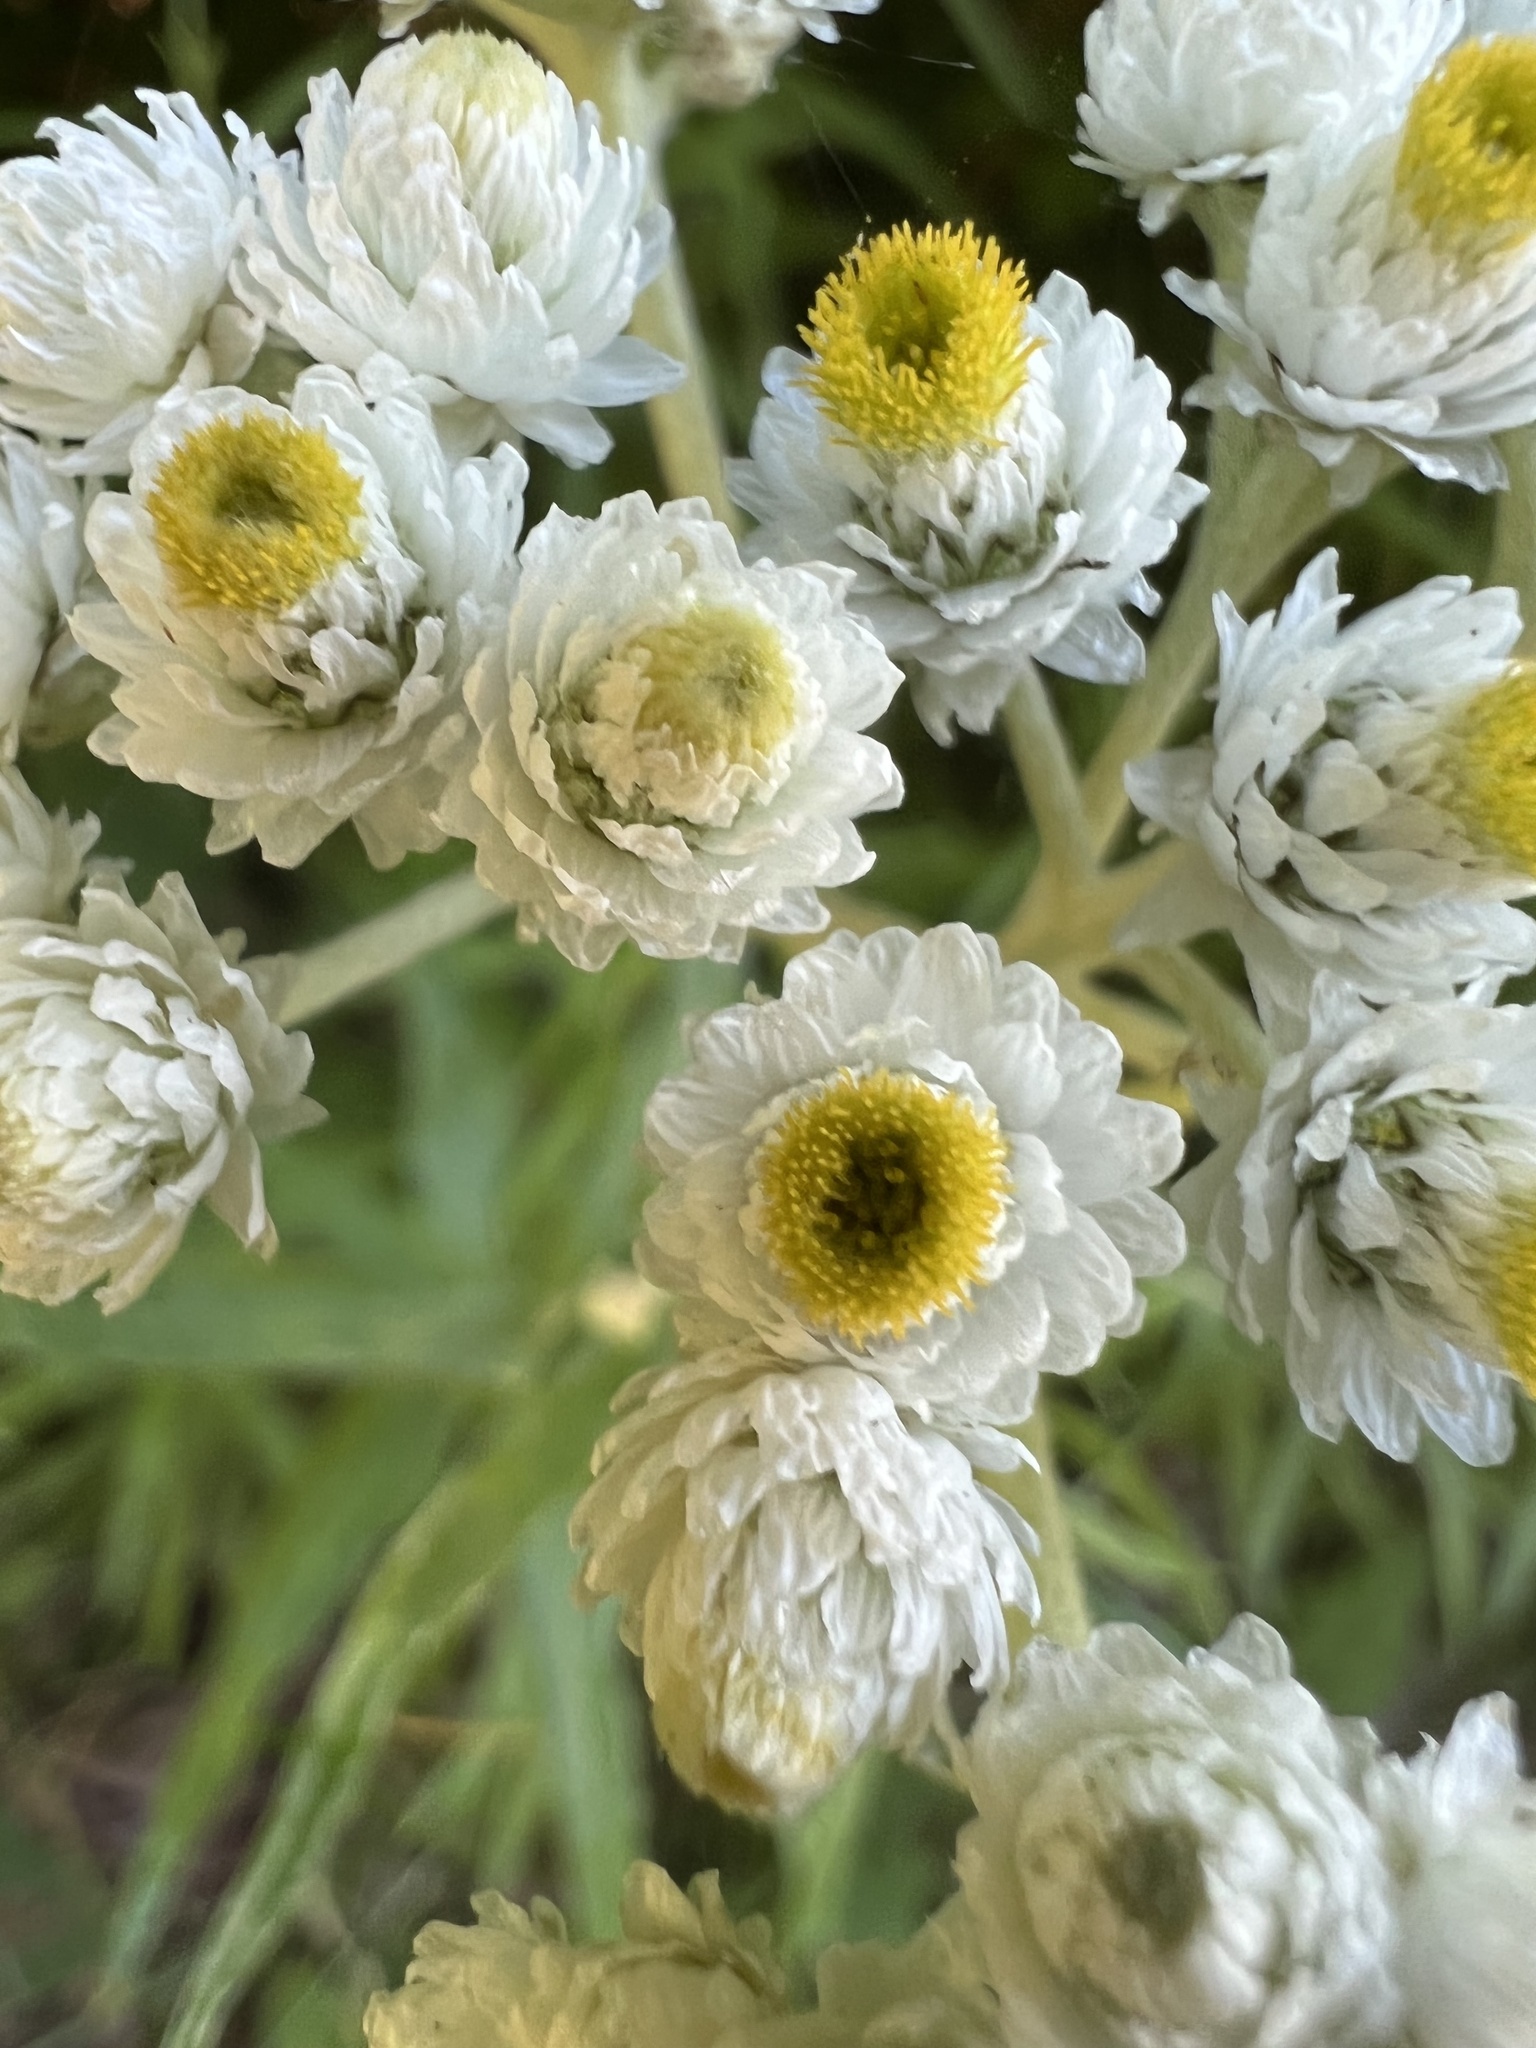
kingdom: Plantae
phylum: Tracheophyta
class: Magnoliopsida
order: Asterales
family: Asteraceae
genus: Anaphalis
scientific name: Anaphalis margaritacea
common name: Pearly everlasting
